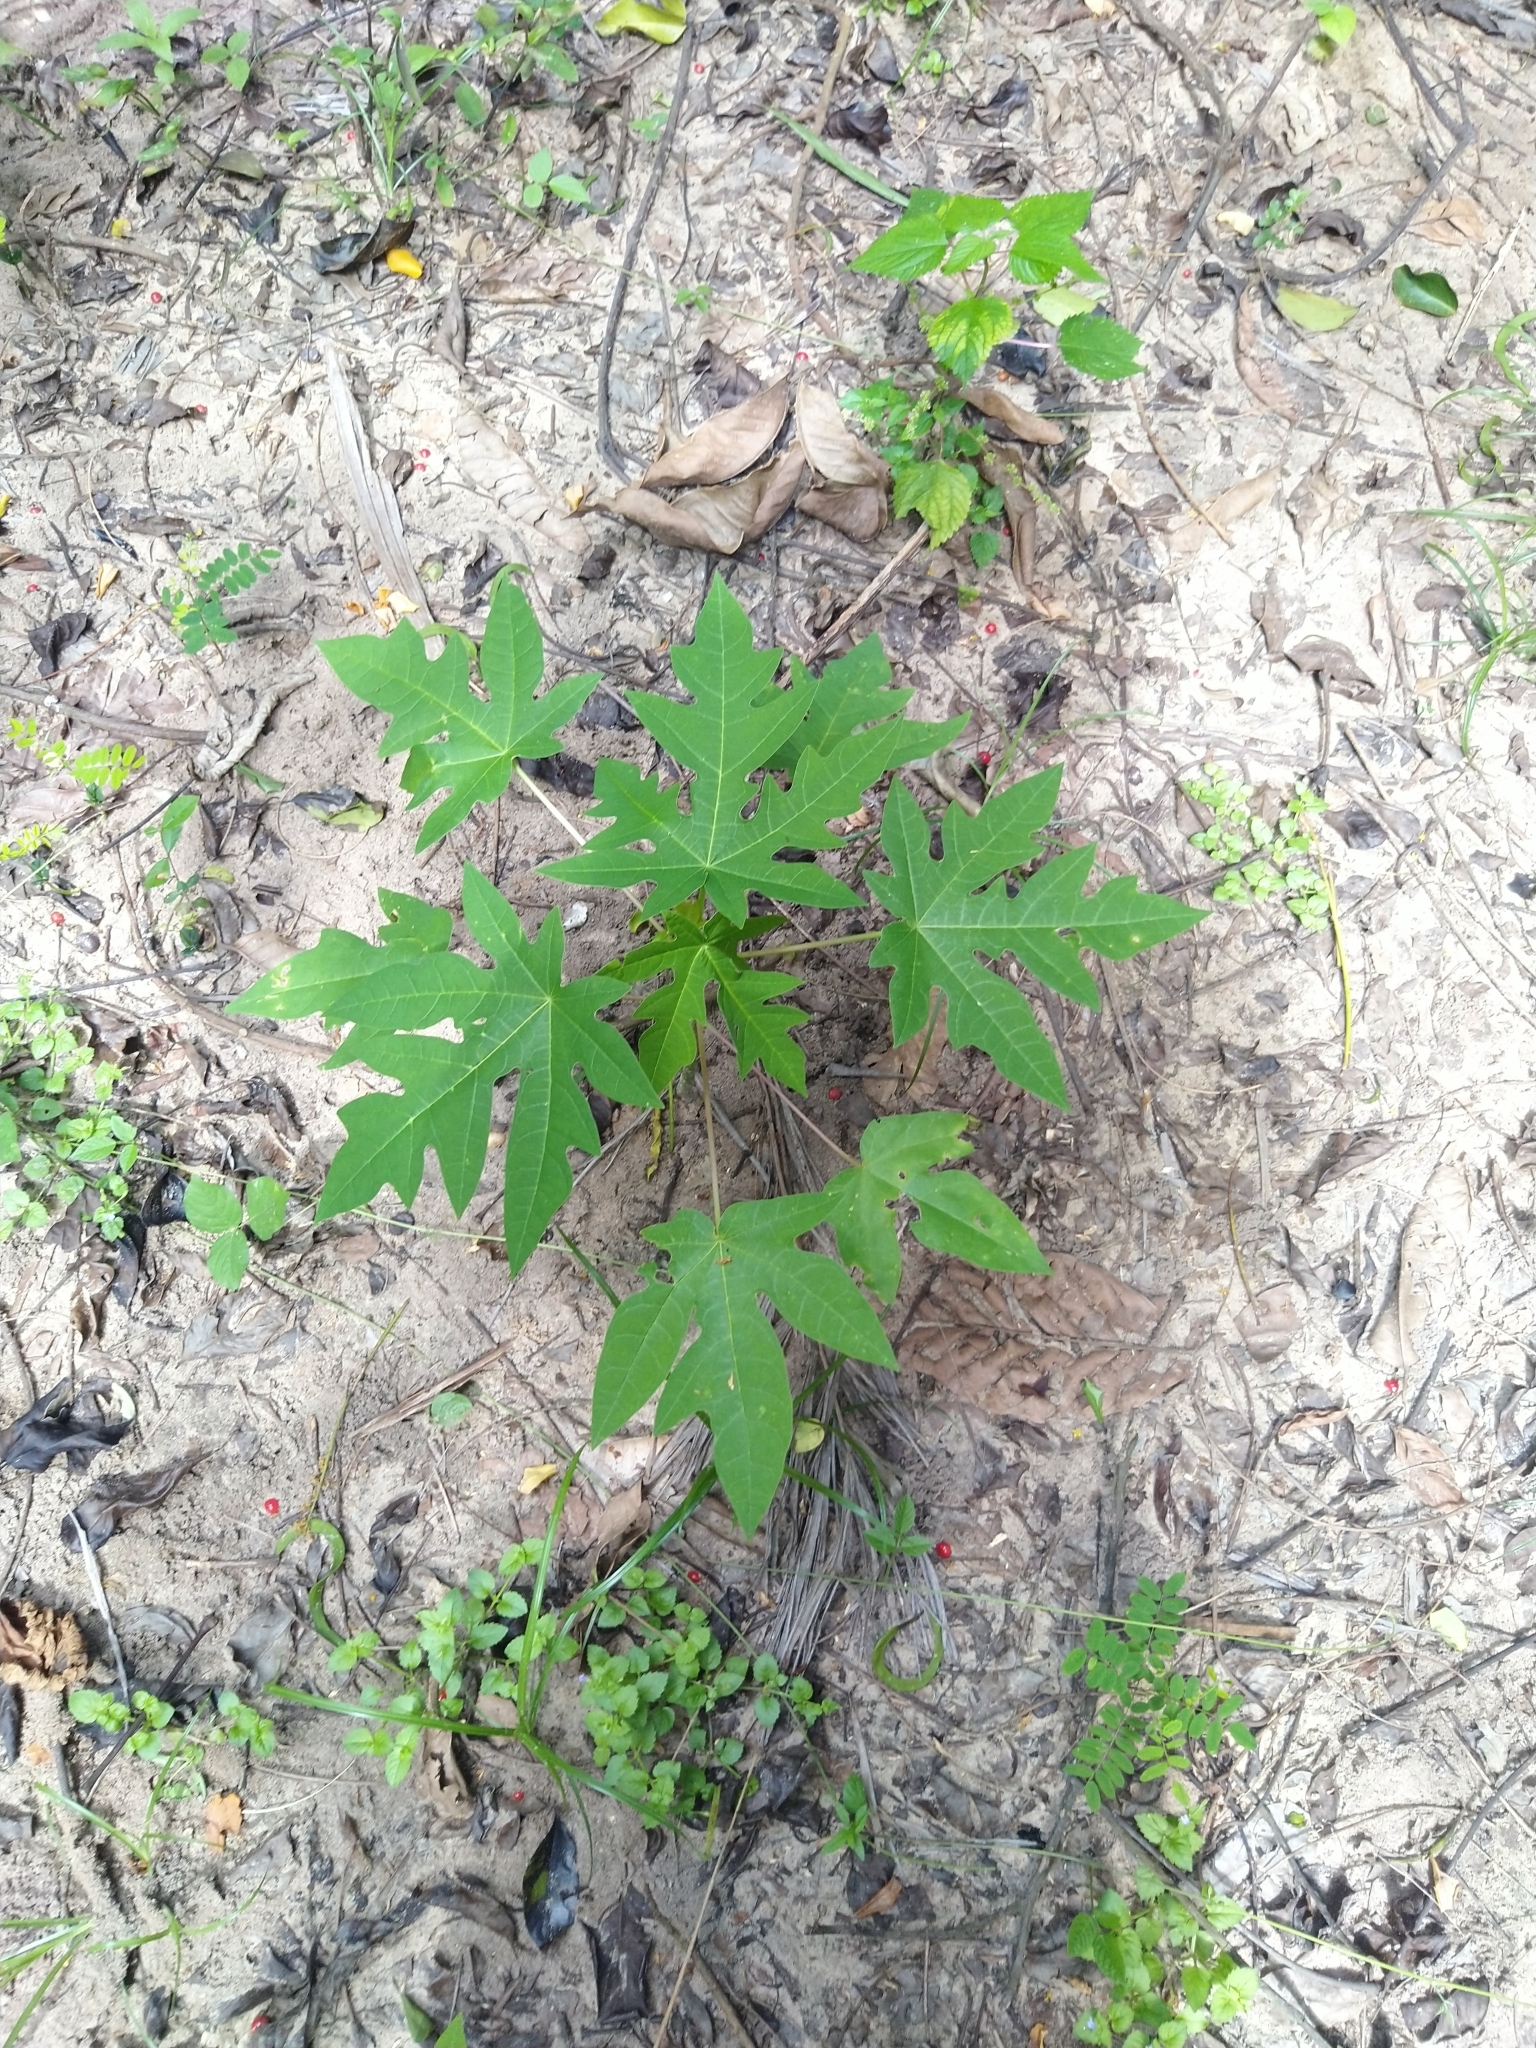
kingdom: Plantae
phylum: Tracheophyta
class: Magnoliopsida
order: Brassicales
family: Caricaceae
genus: Carica
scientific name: Carica papaya
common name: Papaya
